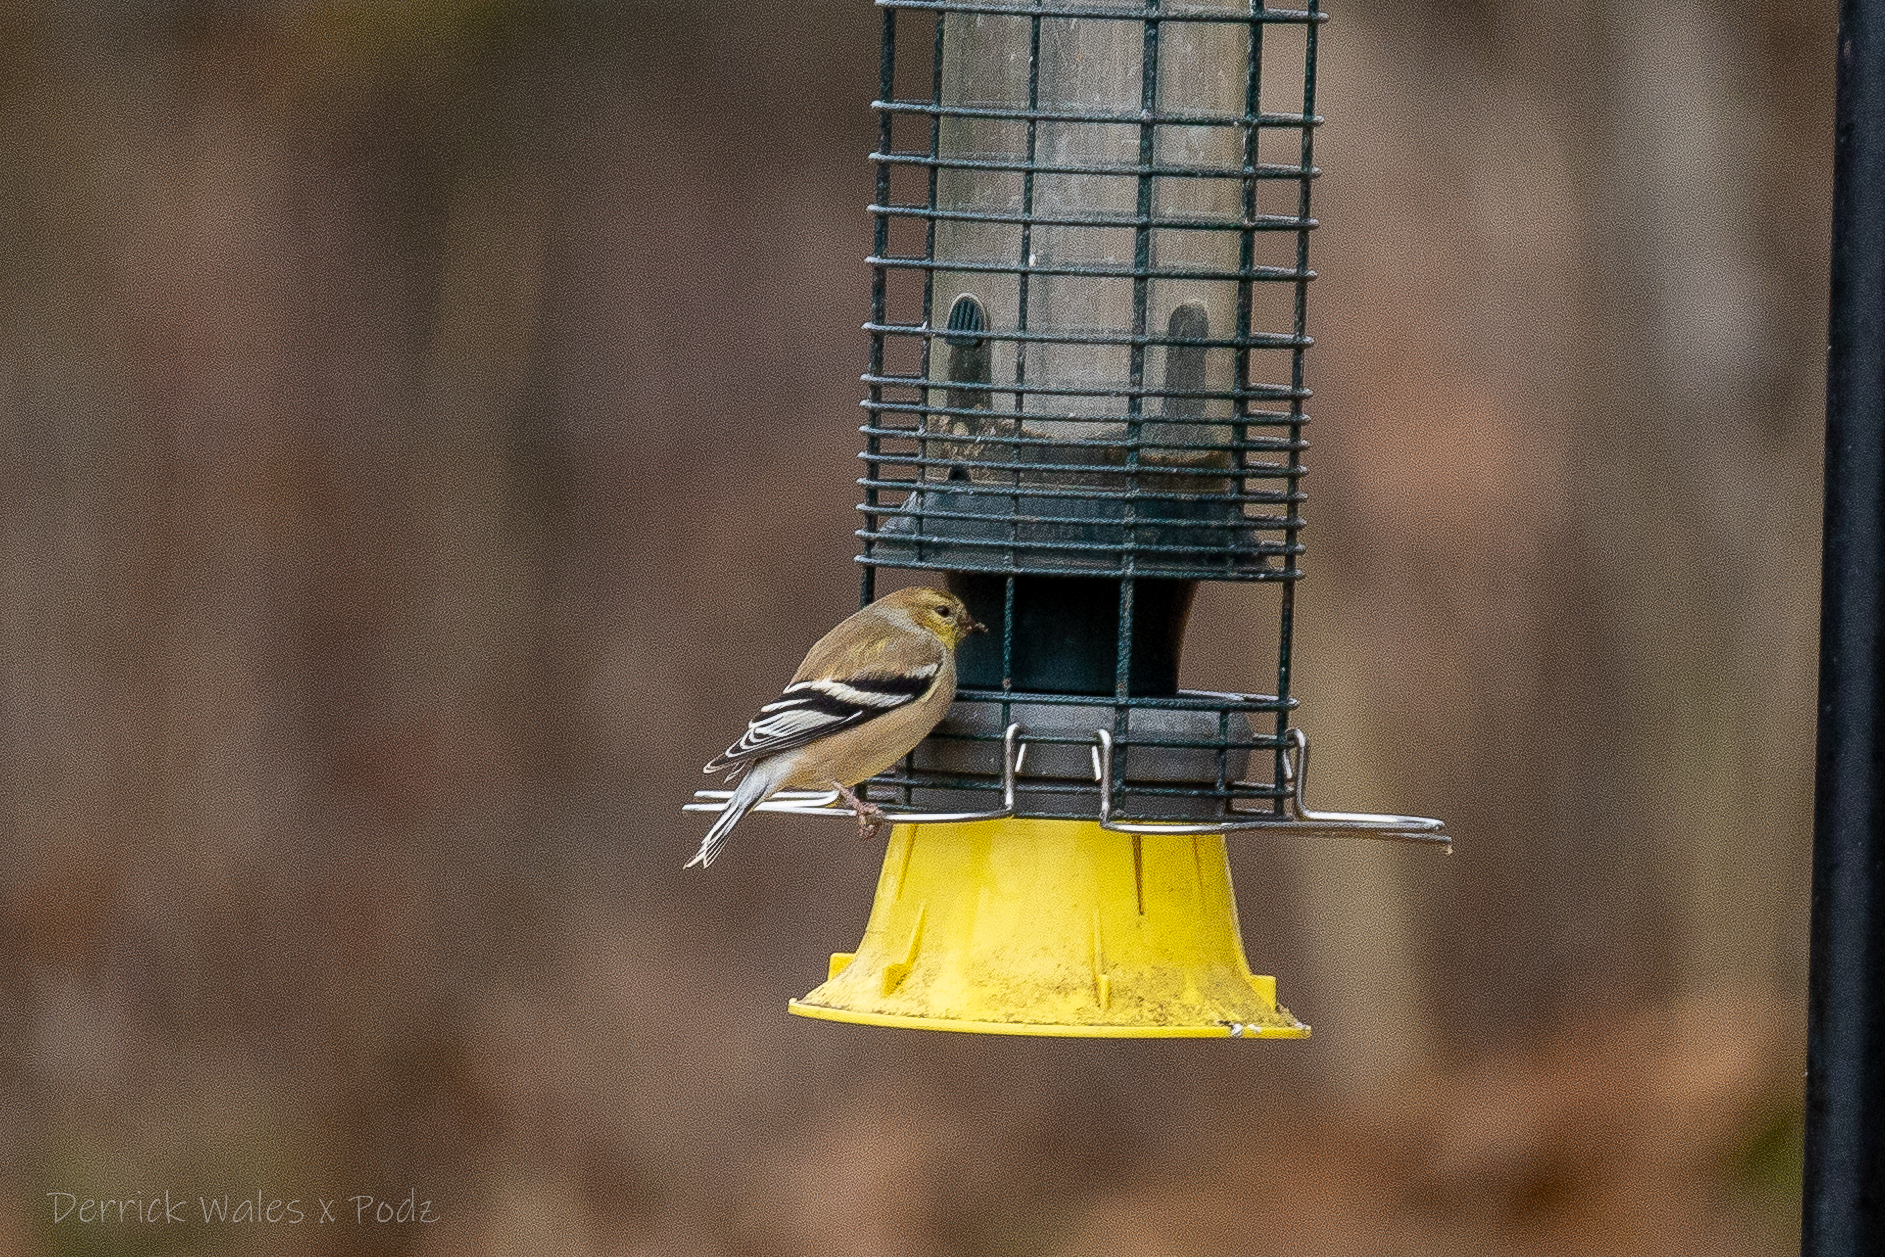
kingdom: Animalia
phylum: Chordata
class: Aves
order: Passeriformes
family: Fringillidae
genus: Spinus
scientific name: Spinus tristis
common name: American goldfinch
